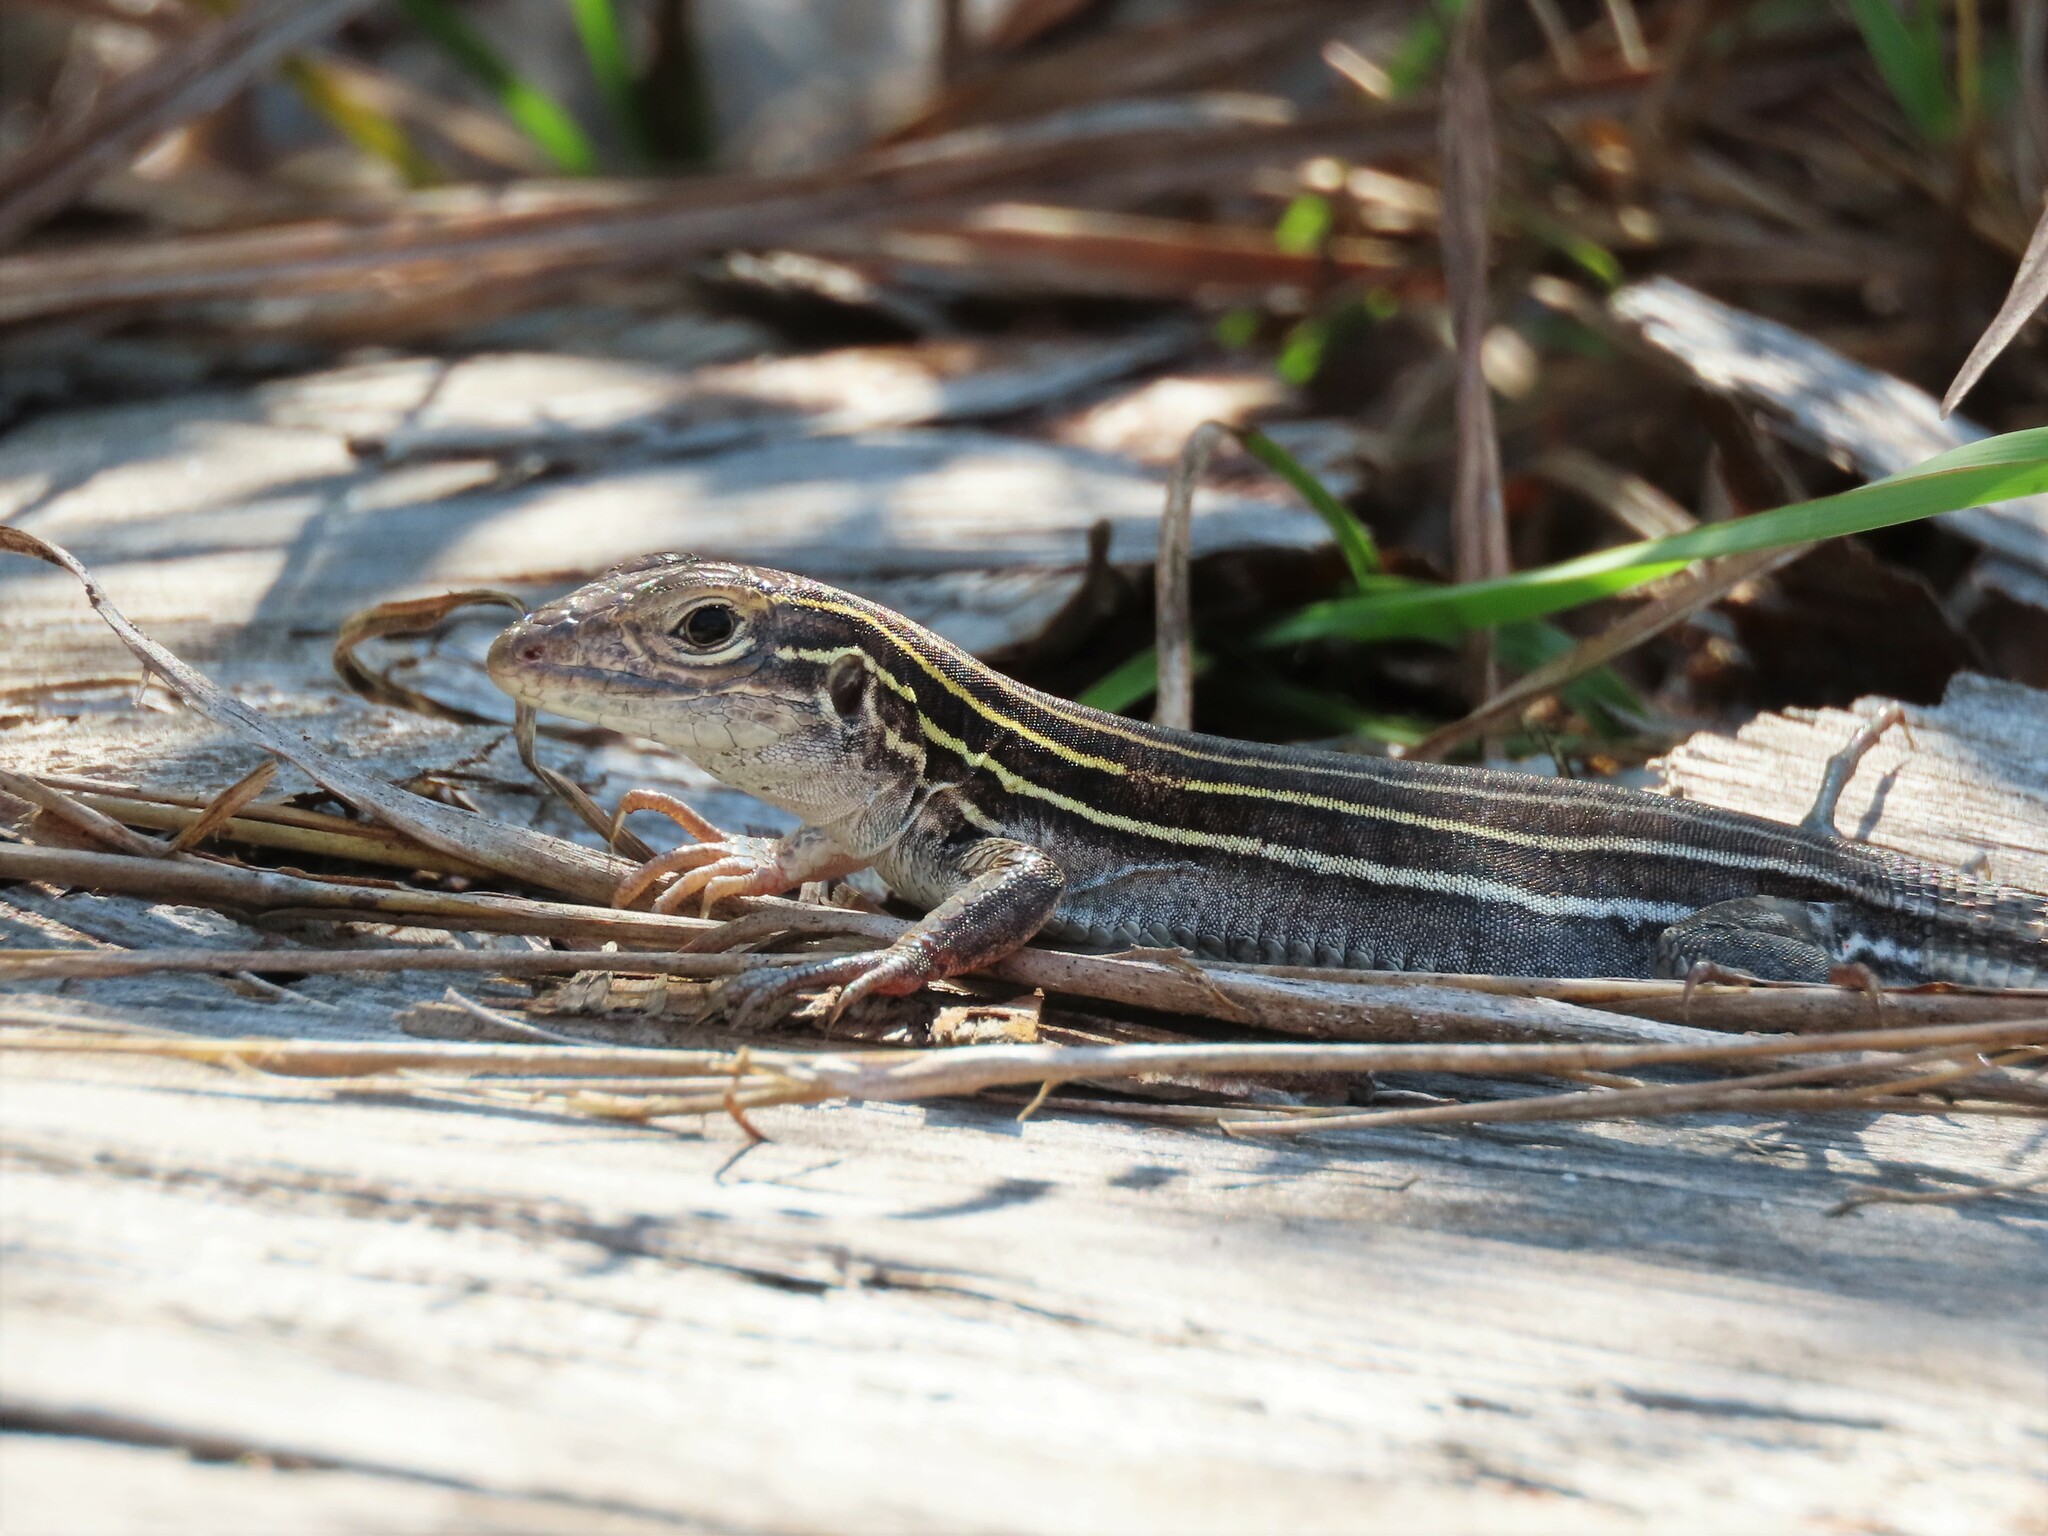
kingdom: Animalia
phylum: Chordata
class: Squamata
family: Teiidae
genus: Aspidoscelis
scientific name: Aspidoscelis sexlineatus
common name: Six-lined racerunner
